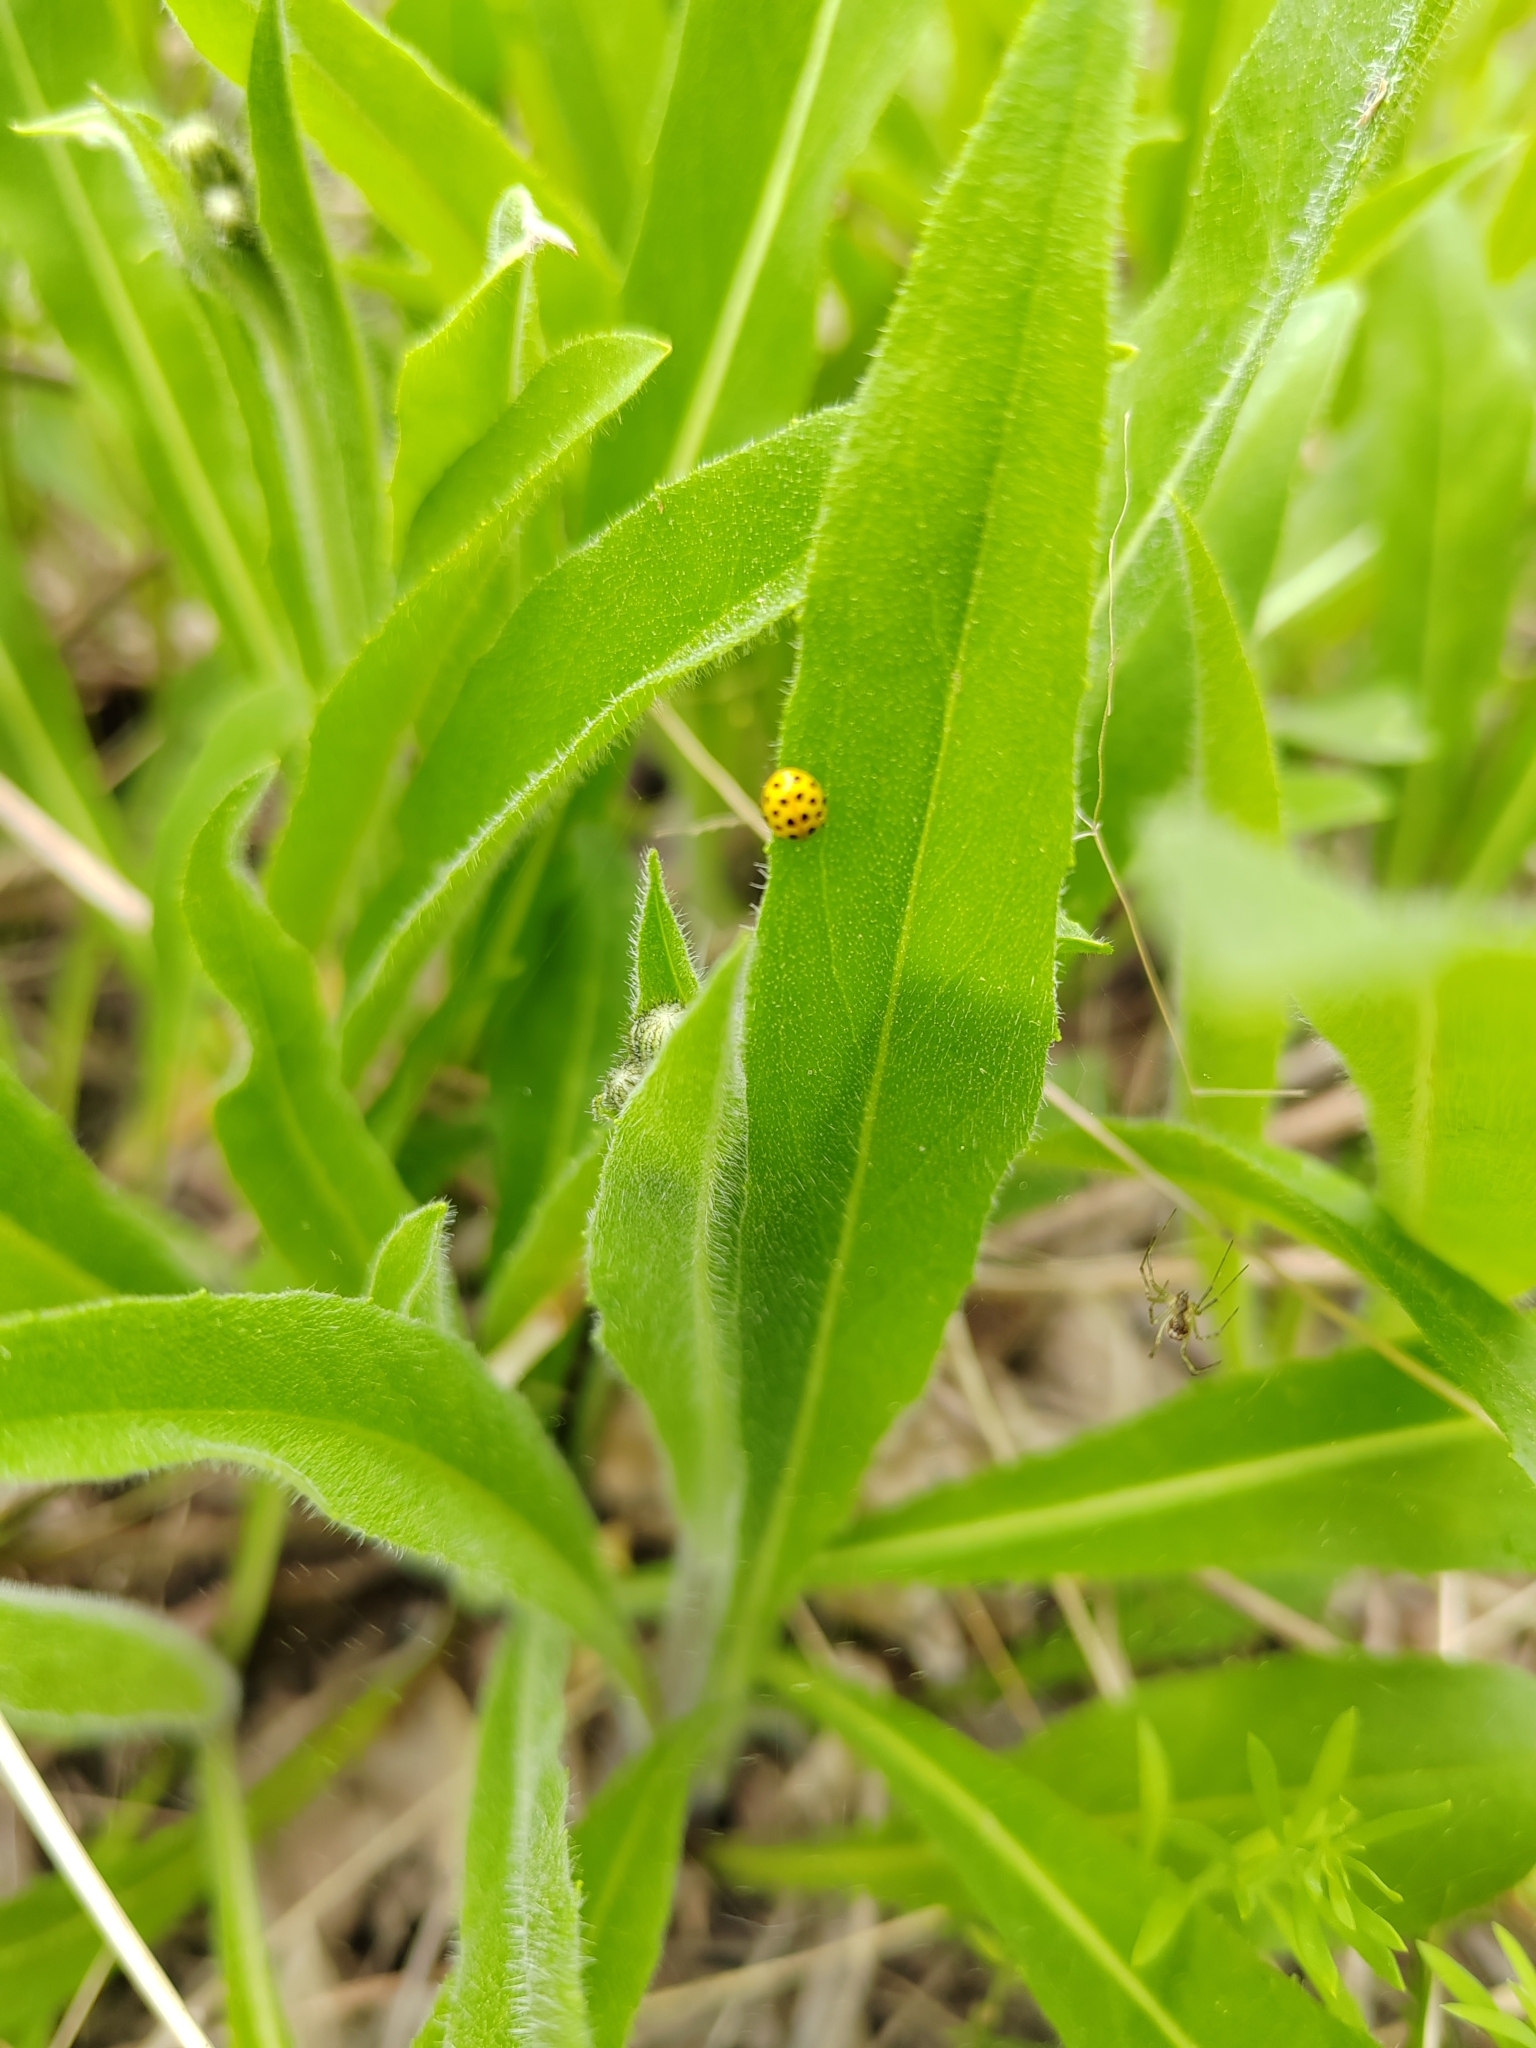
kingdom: Animalia
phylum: Arthropoda
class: Insecta
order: Coleoptera
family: Coccinellidae
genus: Psyllobora
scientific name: Psyllobora vigintiduopunctata
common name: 22-spot ladybird
